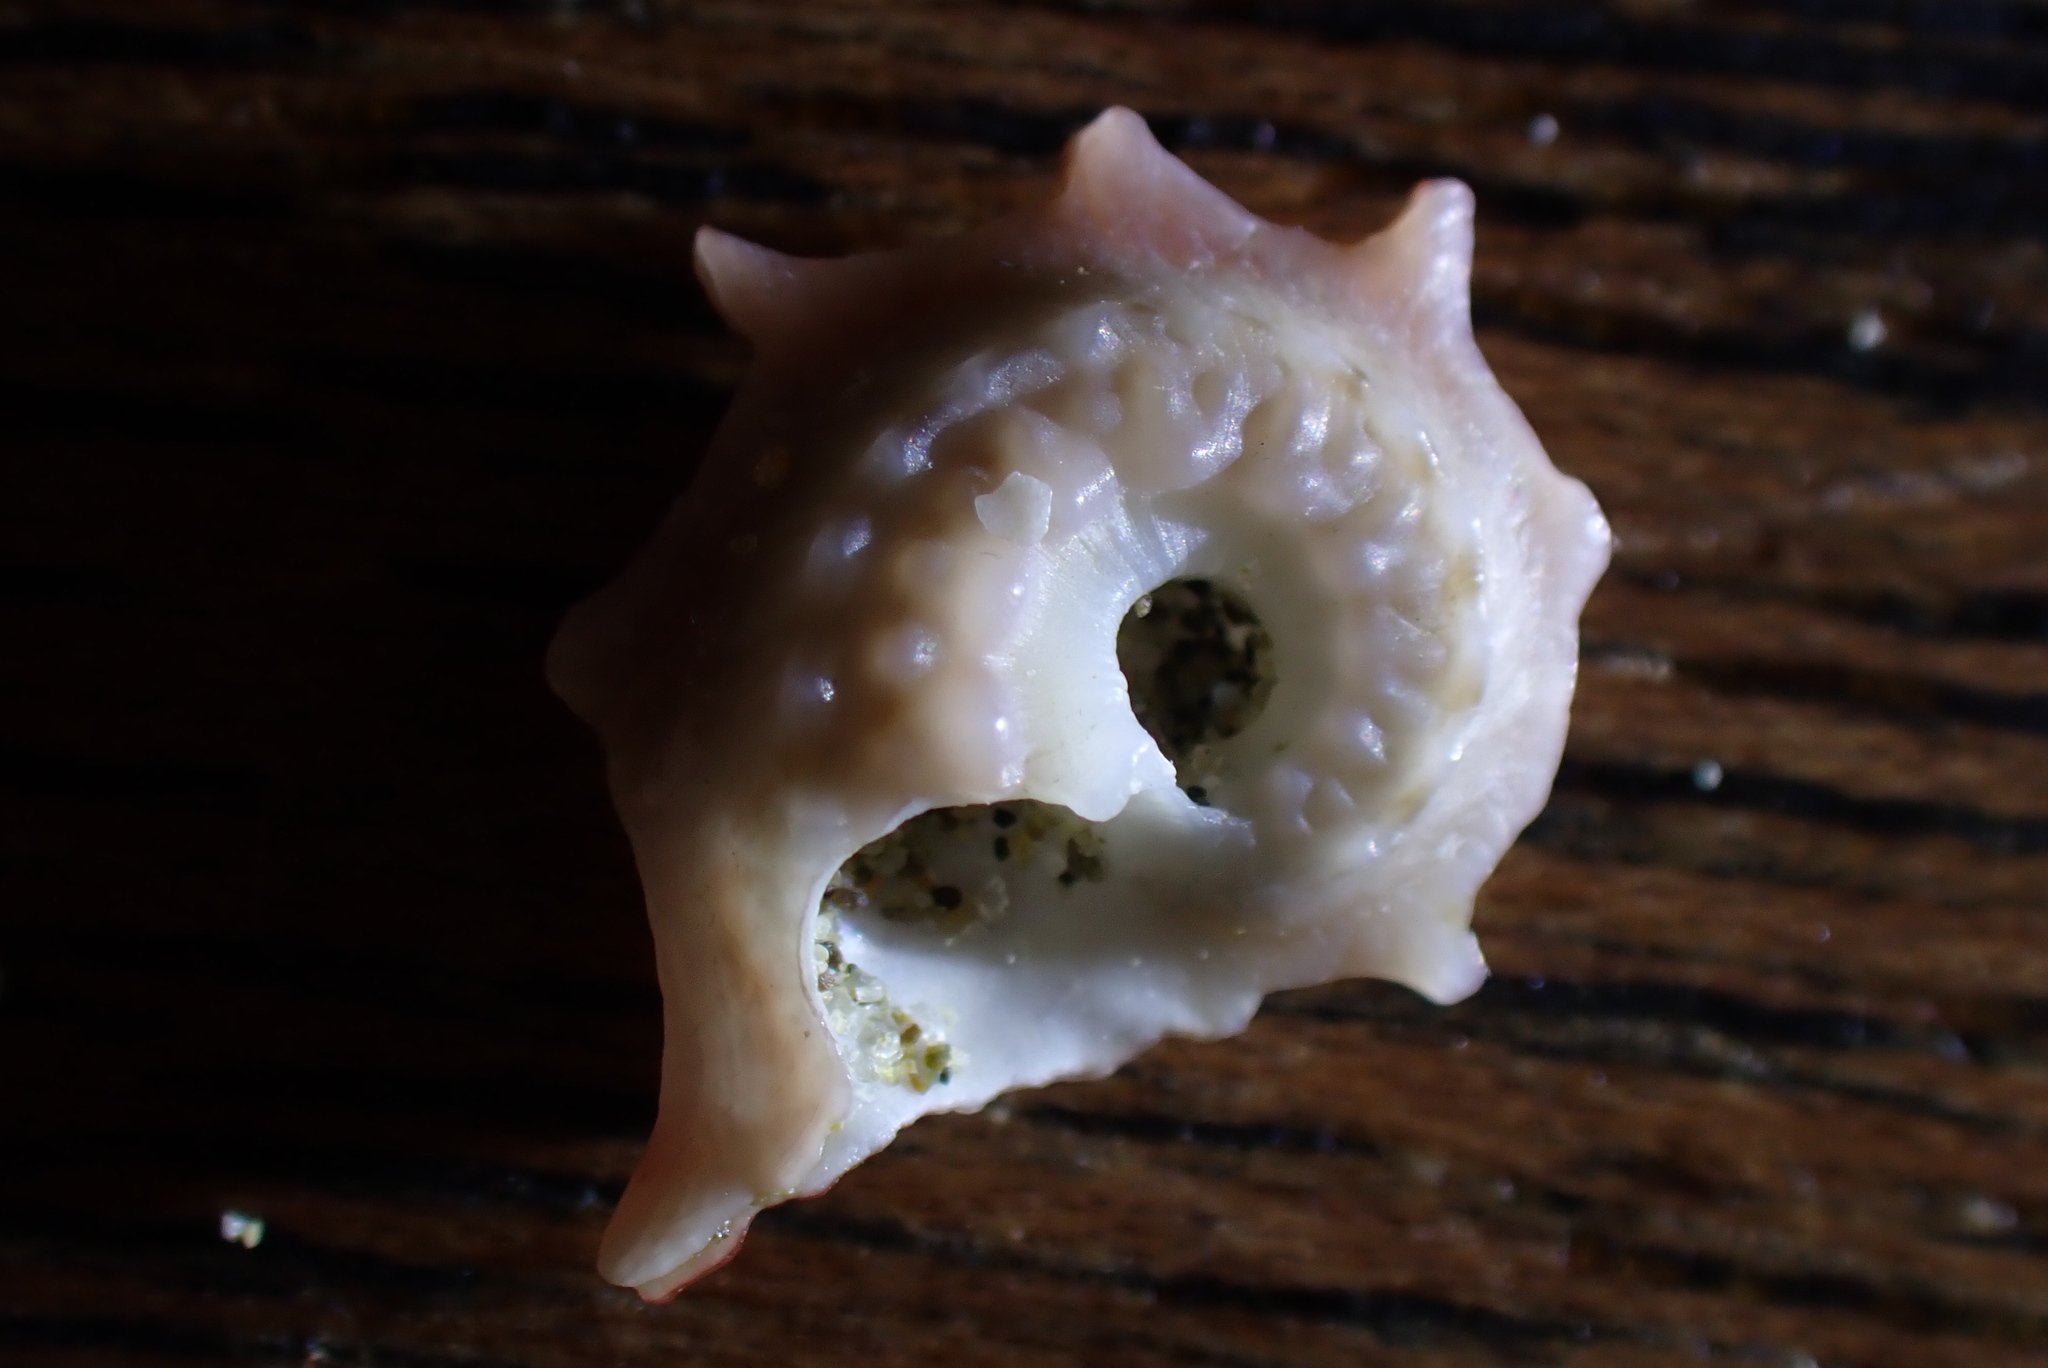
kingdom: Animalia
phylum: Mollusca
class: Gastropoda
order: Trochida
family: Turbinidae
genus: Astraea
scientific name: Astraea heliotropium
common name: Sun shell
